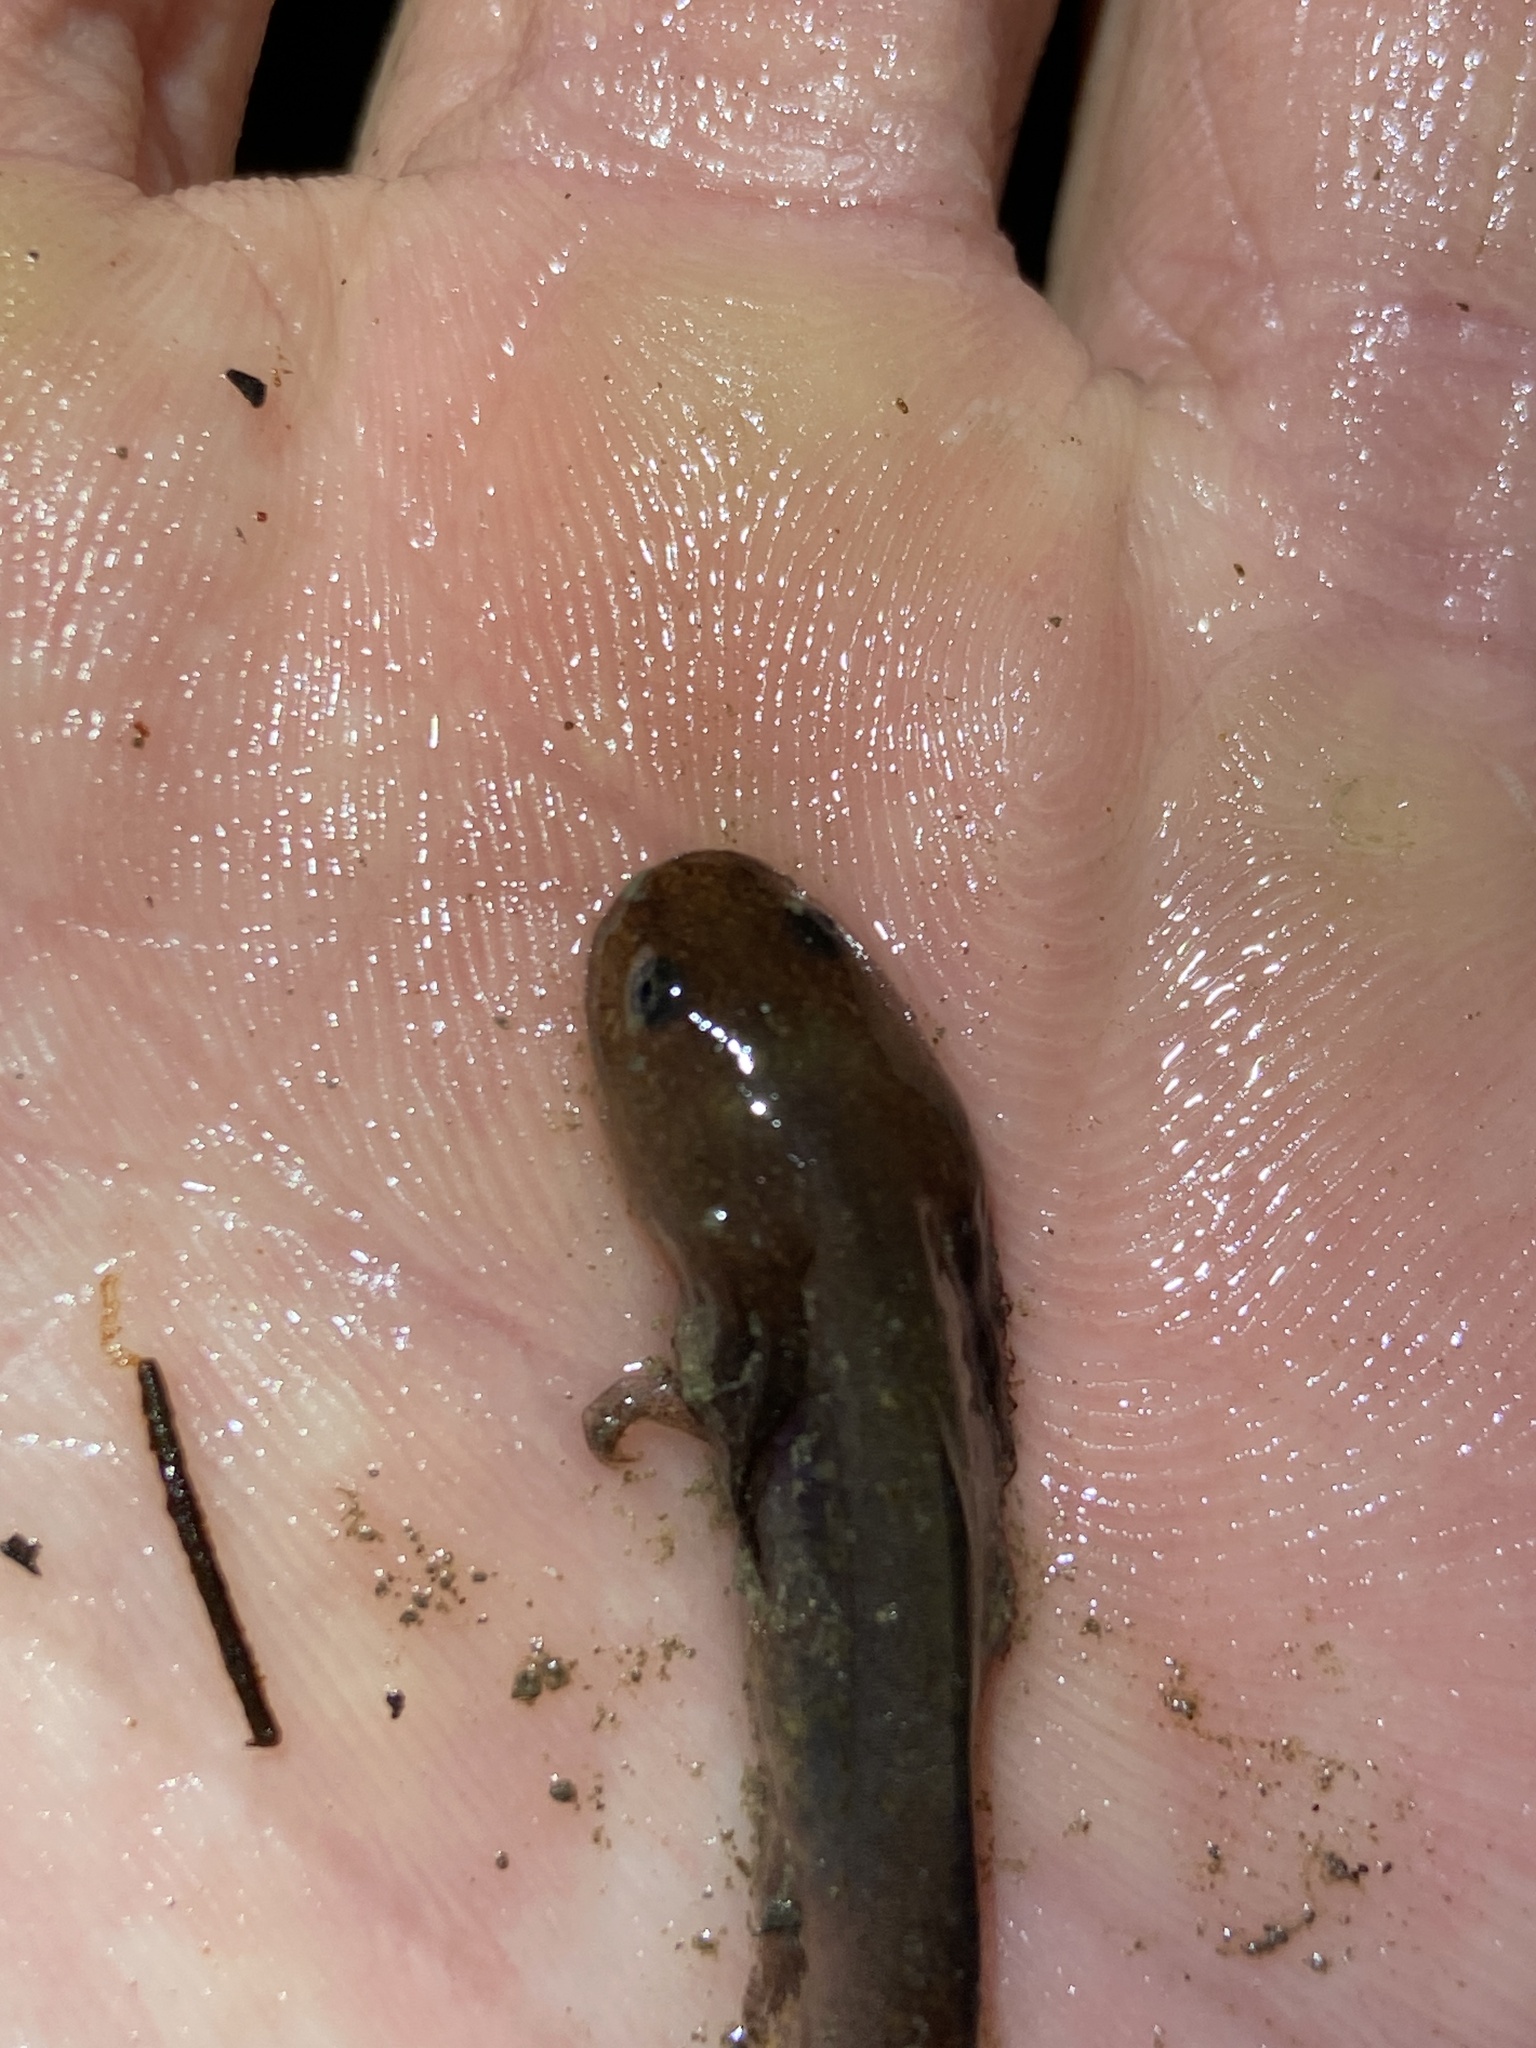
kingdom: Animalia
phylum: Chordata
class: Amphibia
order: Caudata
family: Ambystomatidae
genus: Ambystoma
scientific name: Ambystoma opacum
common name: Marbled salamander
